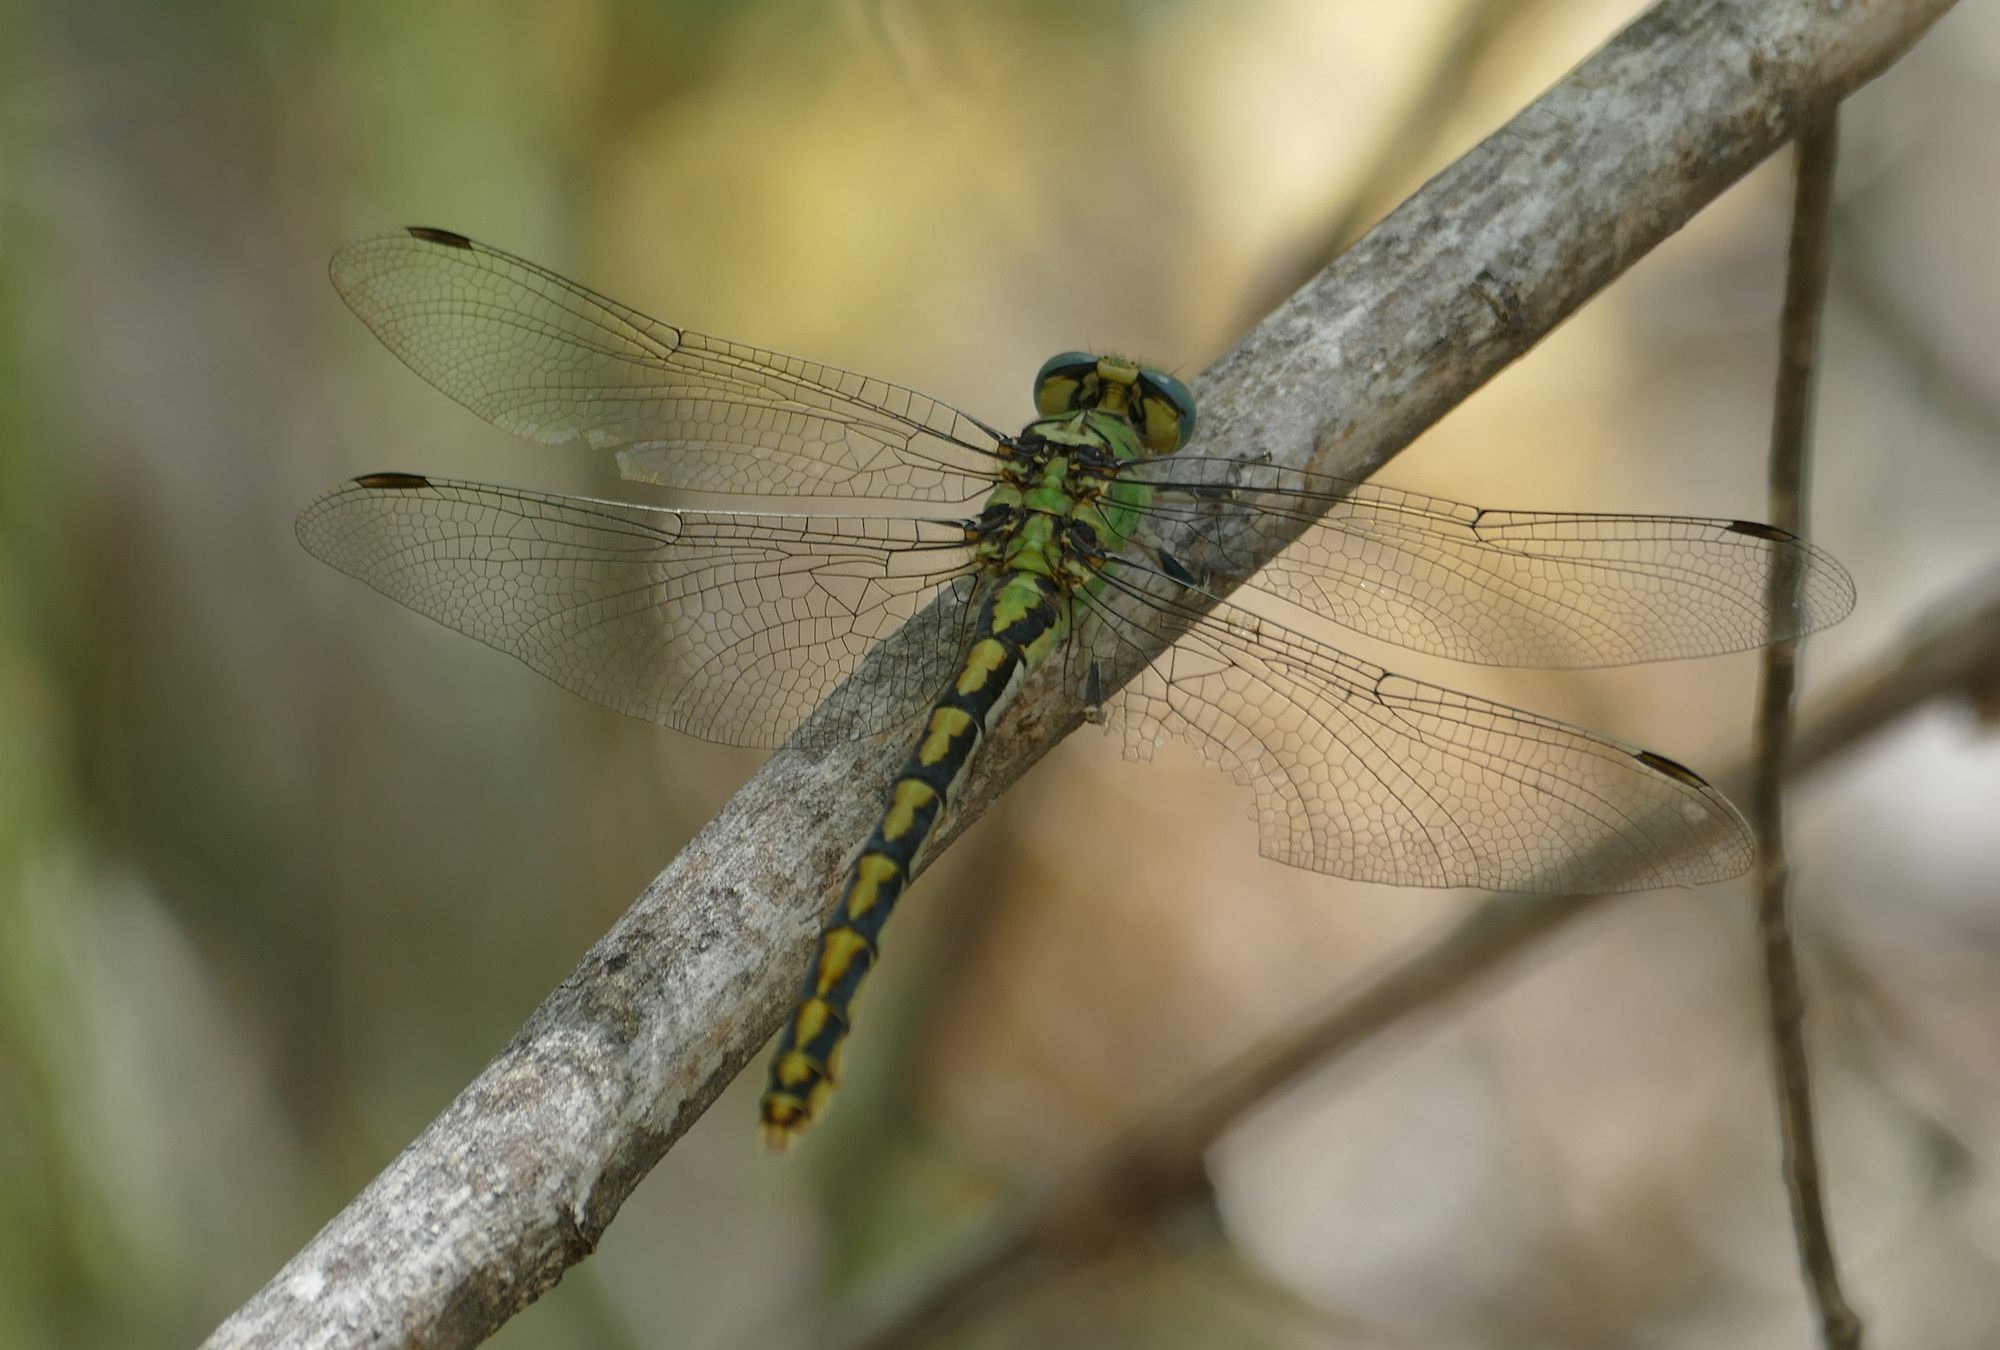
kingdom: Animalia
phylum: Arthropoda
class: Insecta
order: Odonata
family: Gomphidae
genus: Ophiogomphus
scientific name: Ophiogomphus arizonicus
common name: Arizona snaketail
